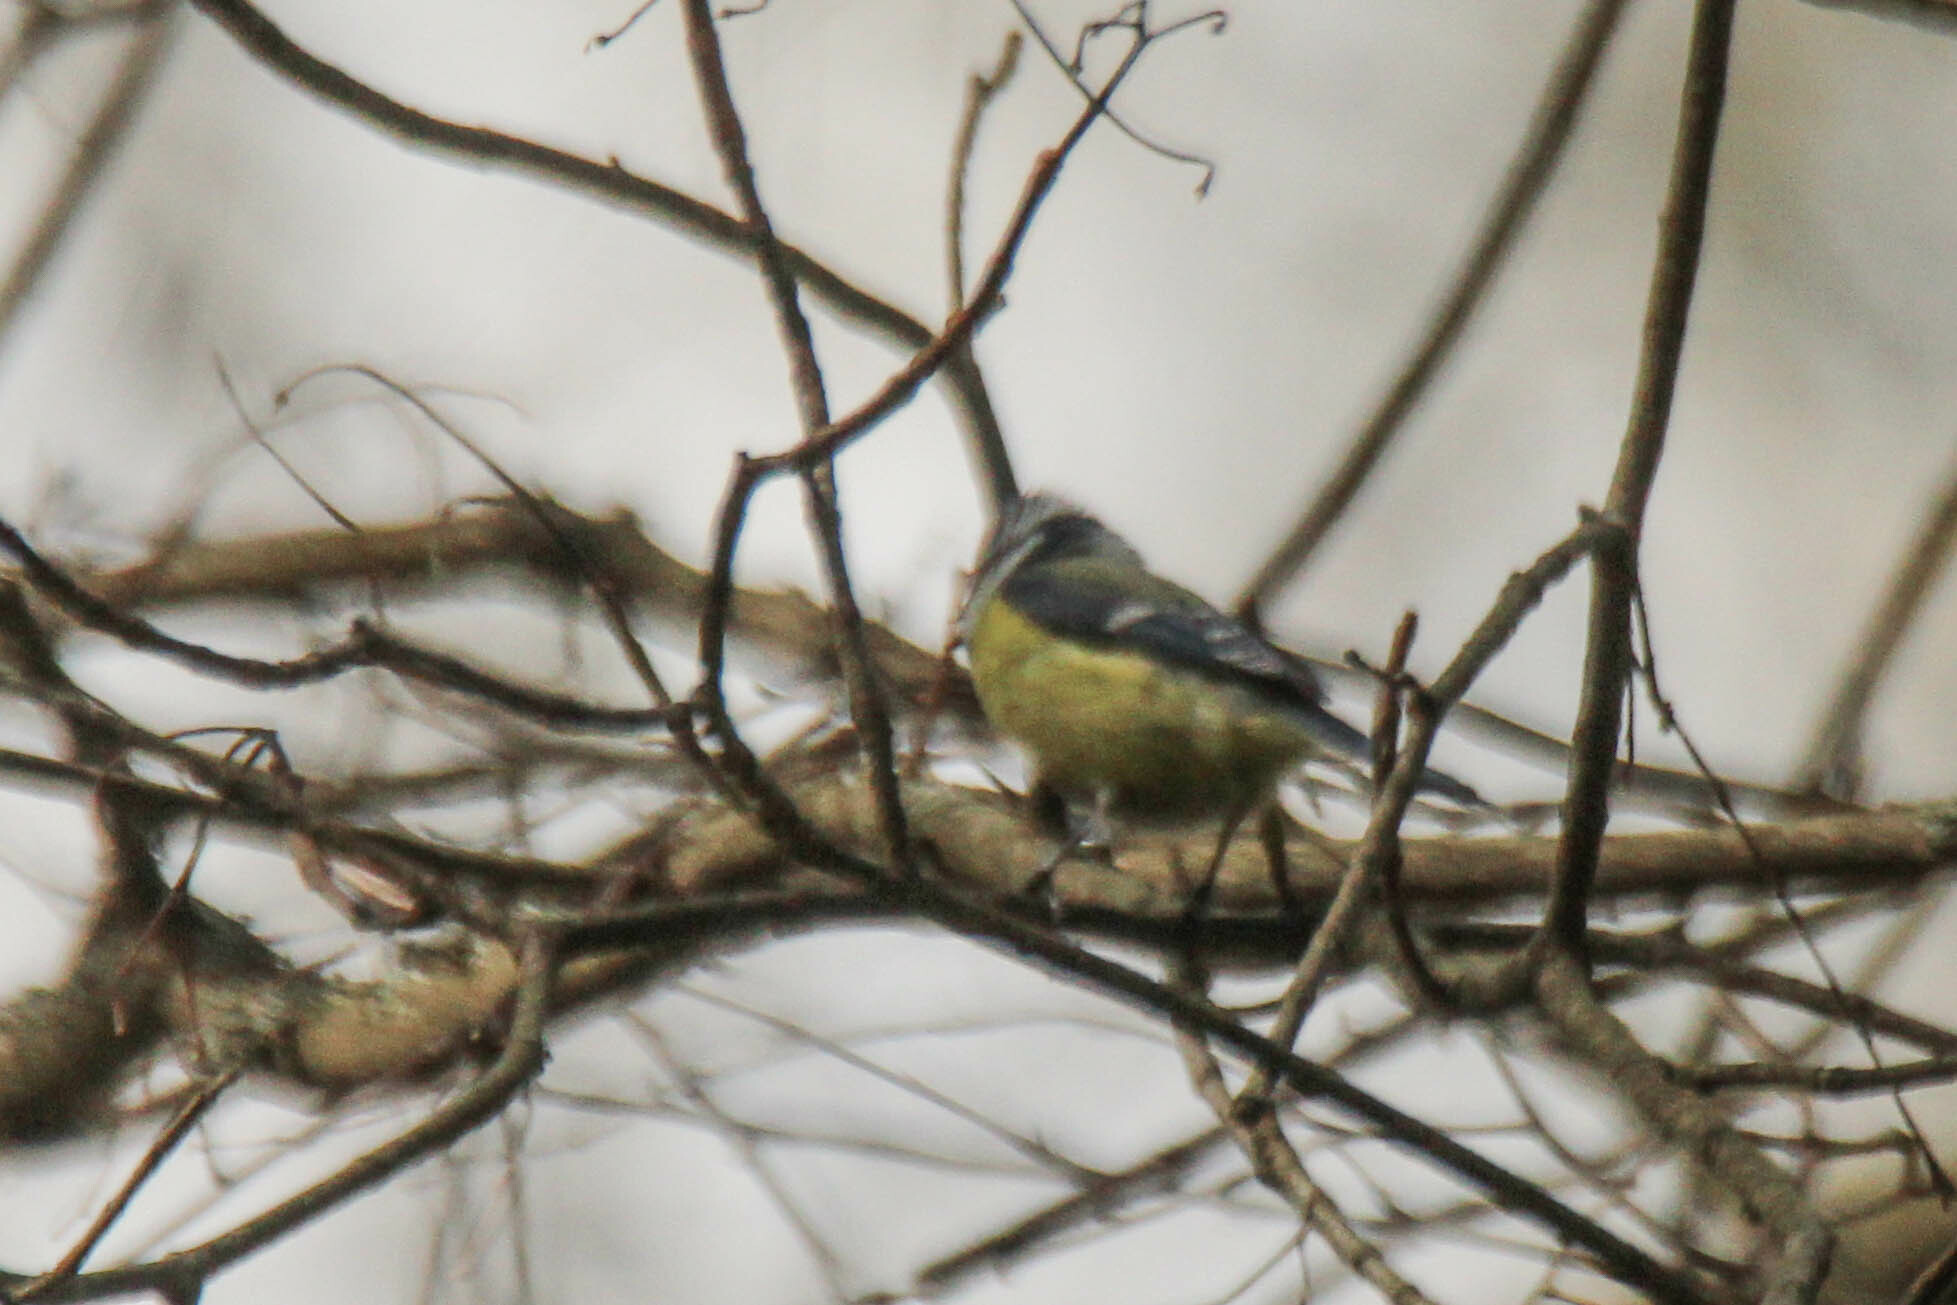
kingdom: Animalia
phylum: Chordata
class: Aves
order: Passeriformes
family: Paridae
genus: Cyanistes
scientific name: Cyanistes caeruleus
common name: Eurasian blue tit
